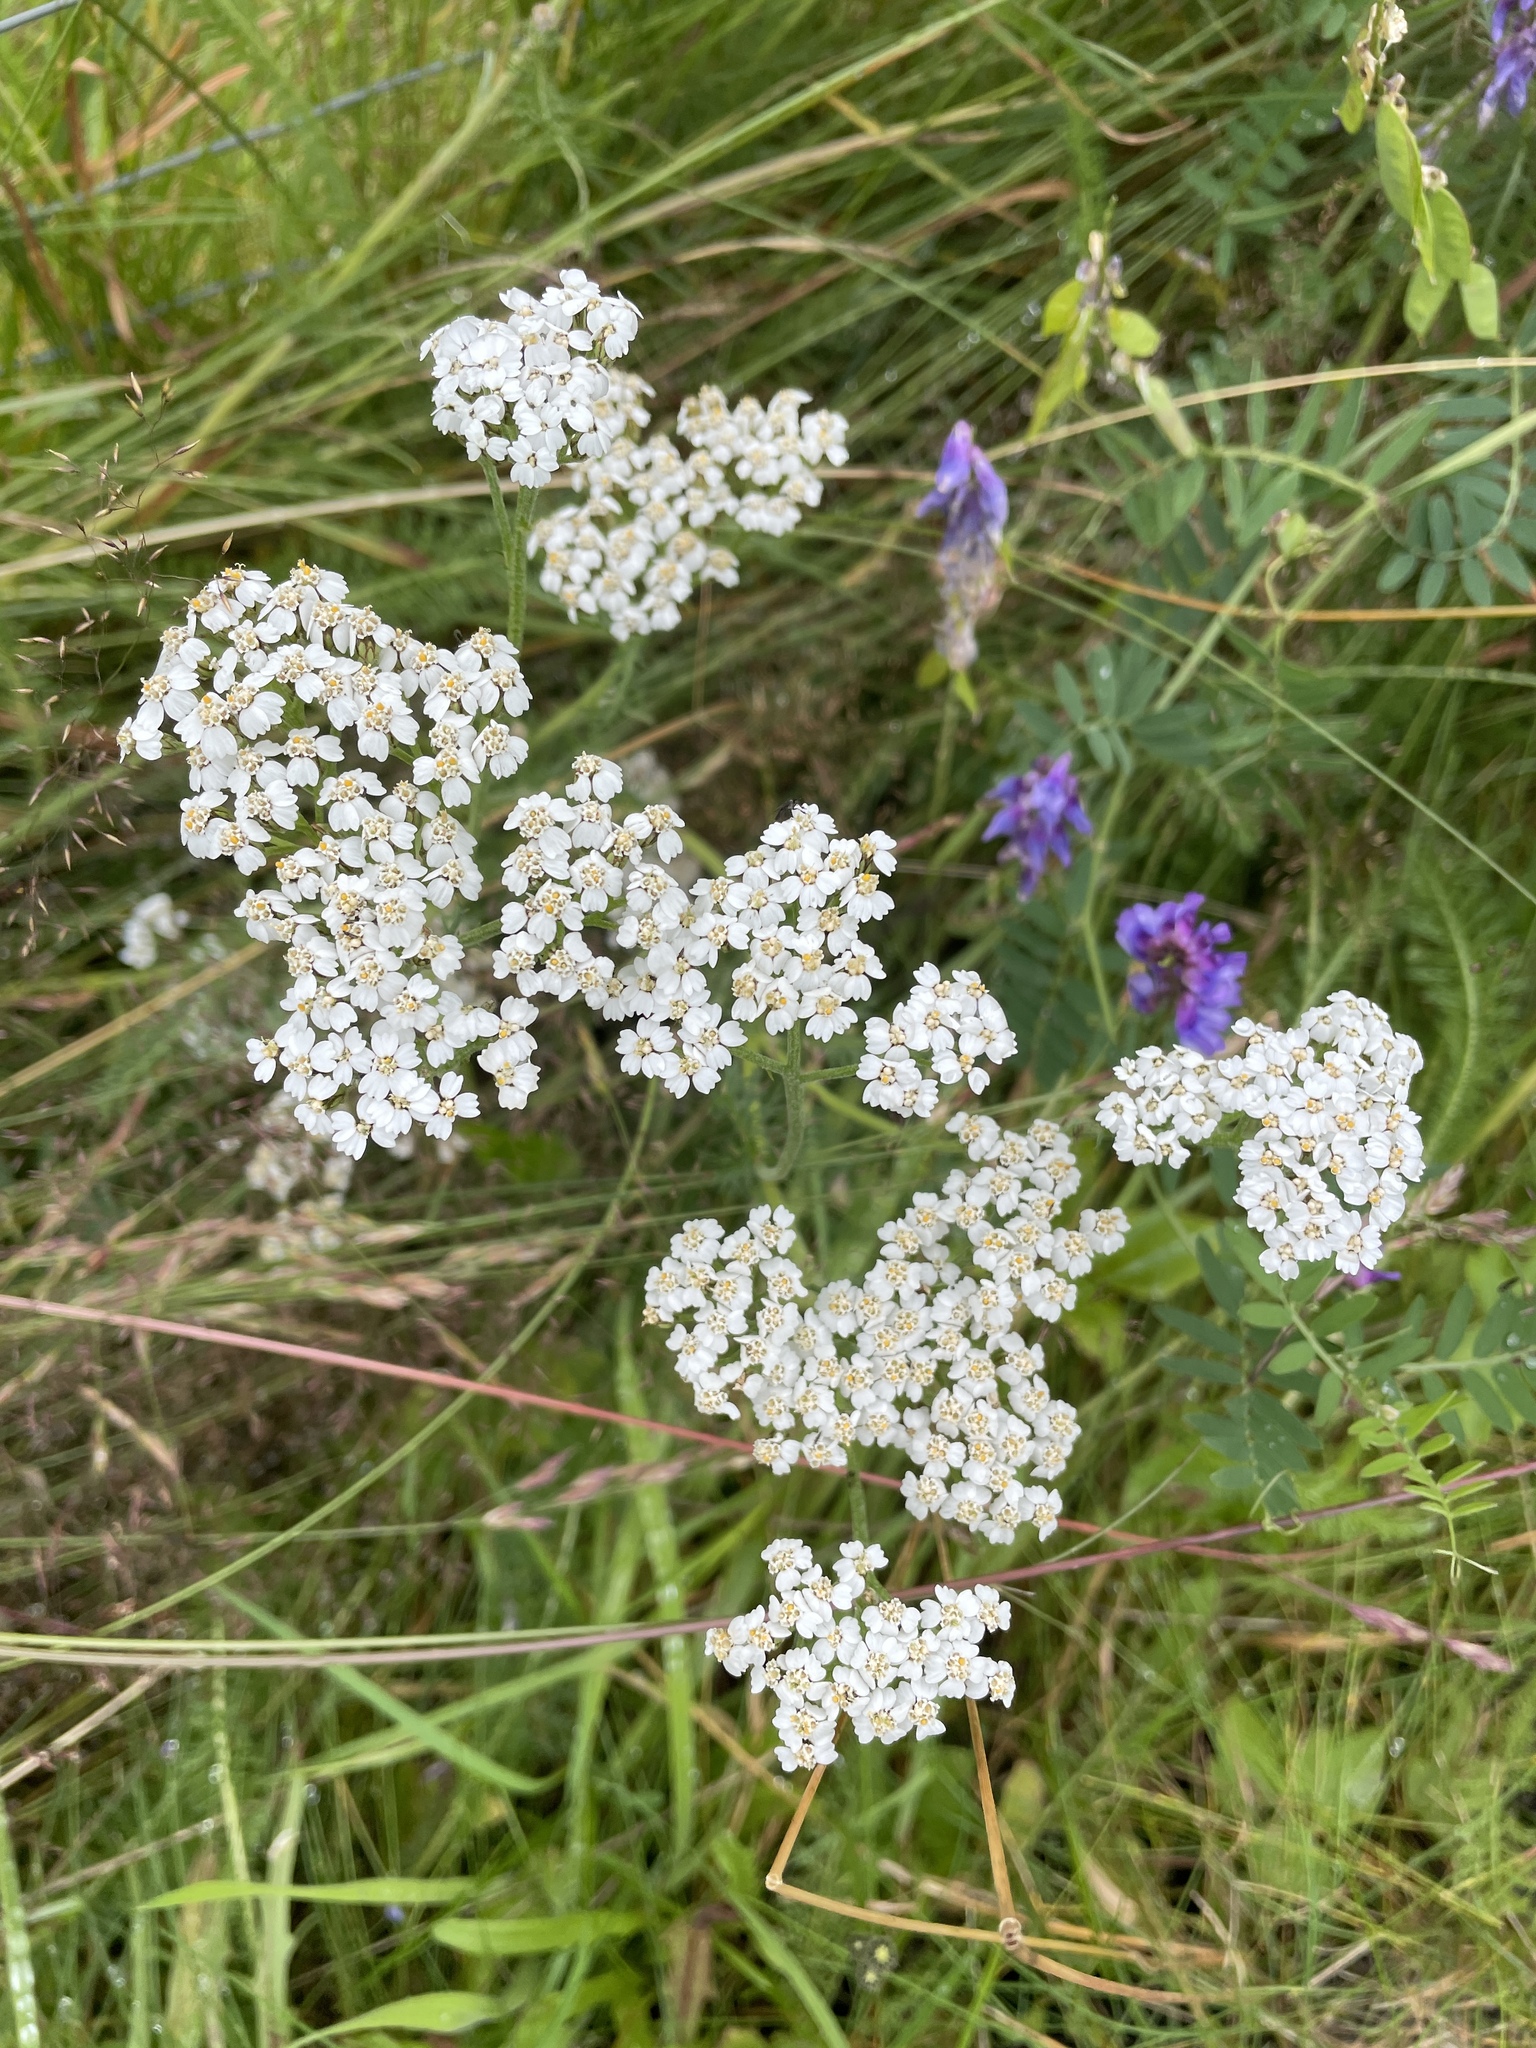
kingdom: Plantae
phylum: Tracheophyta
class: Magnoliopsida
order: Asterales
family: Asteraceae
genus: Achillea
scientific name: Achillea millefolium
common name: Yarrow
